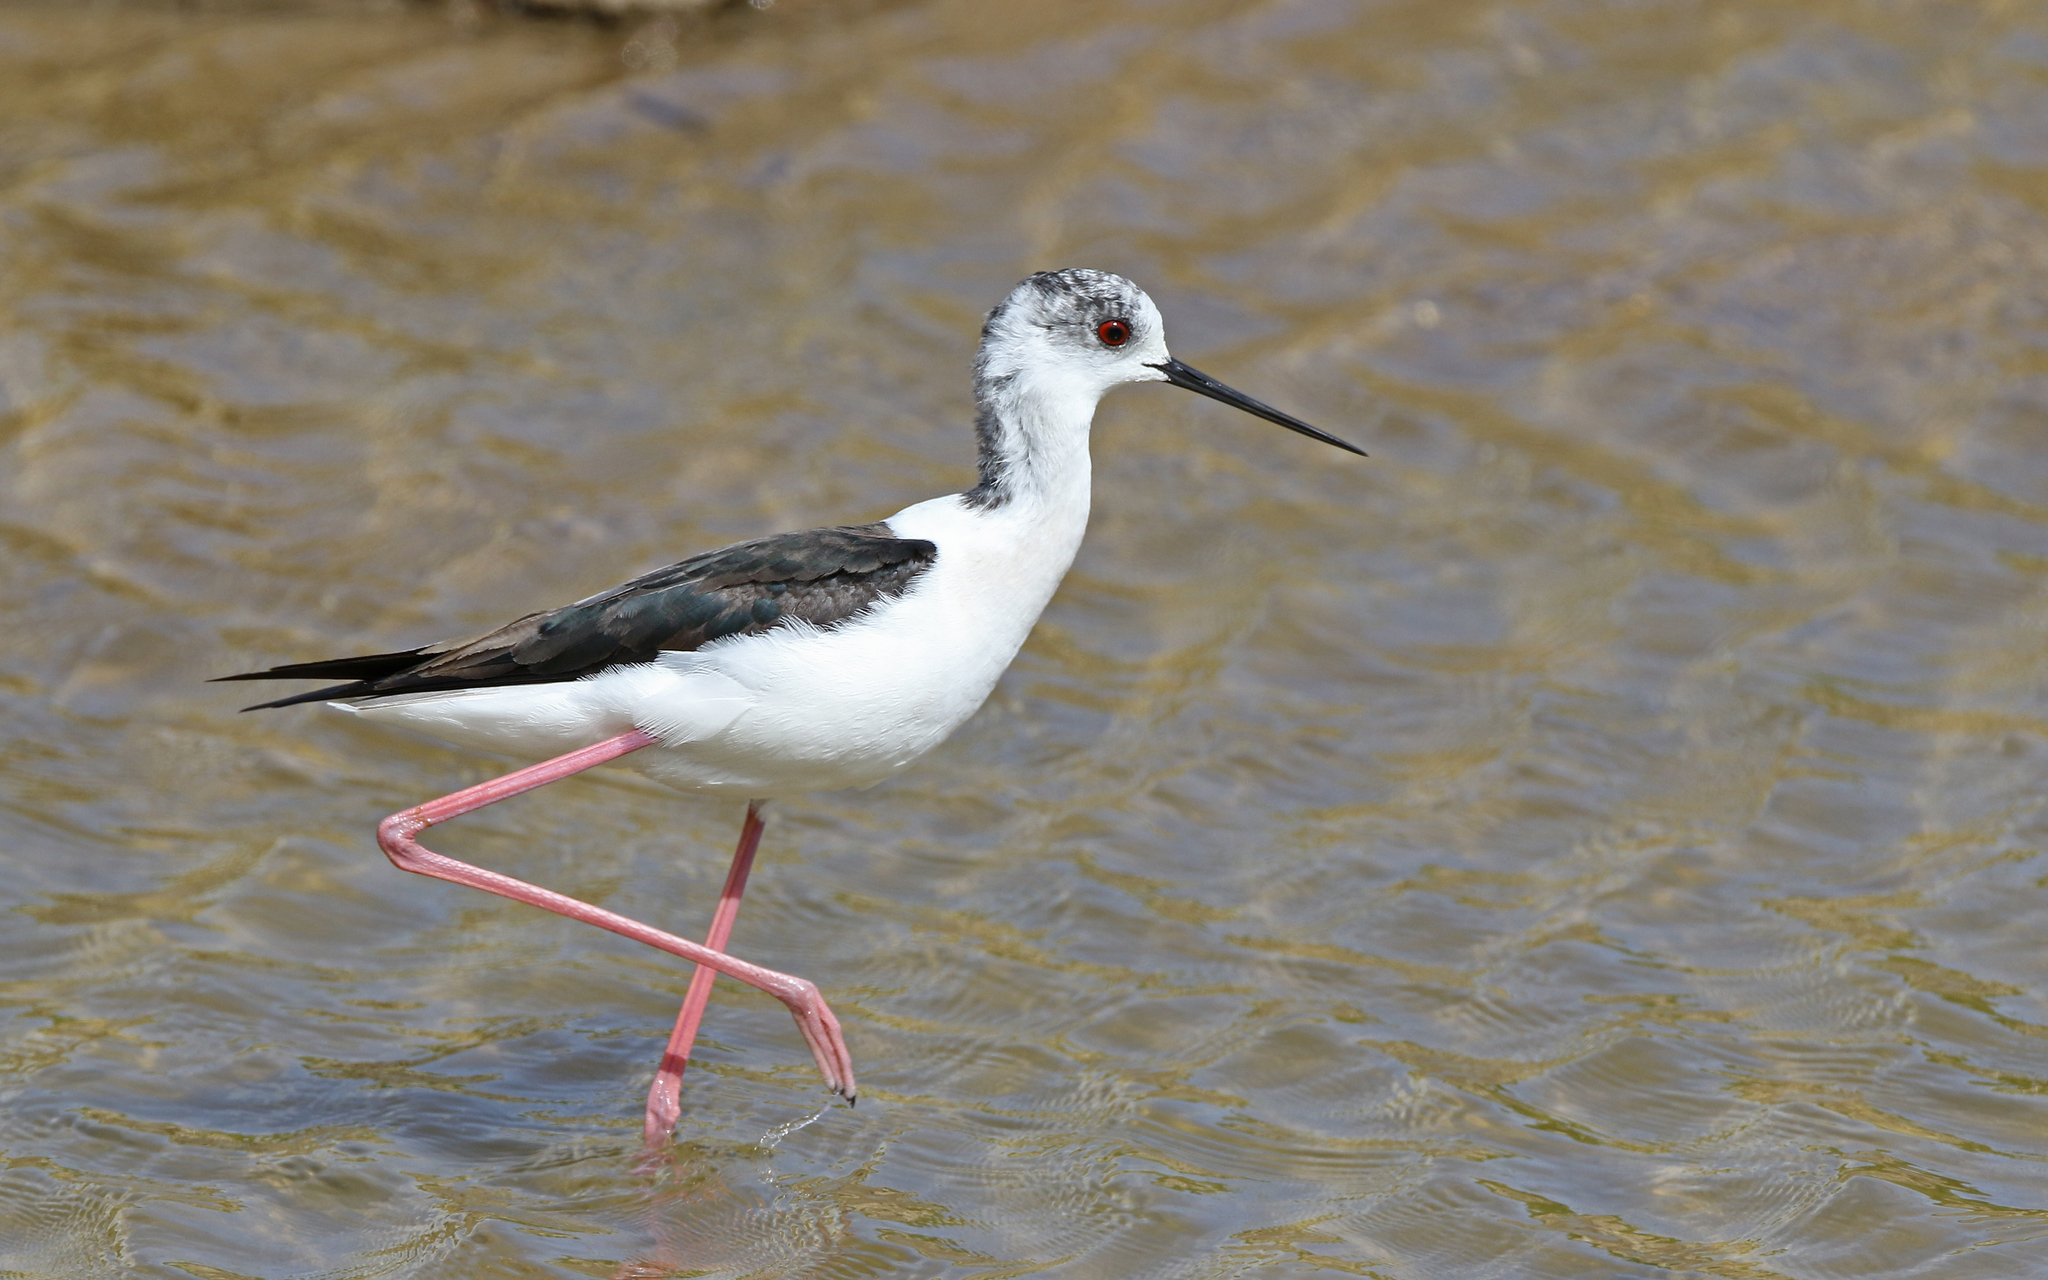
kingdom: Animalia
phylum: Chordata
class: Aves
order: Charadriiformes
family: Recurvirostridae
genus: Himantopus
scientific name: Himantopus himantopus
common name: Black-winged stilt
